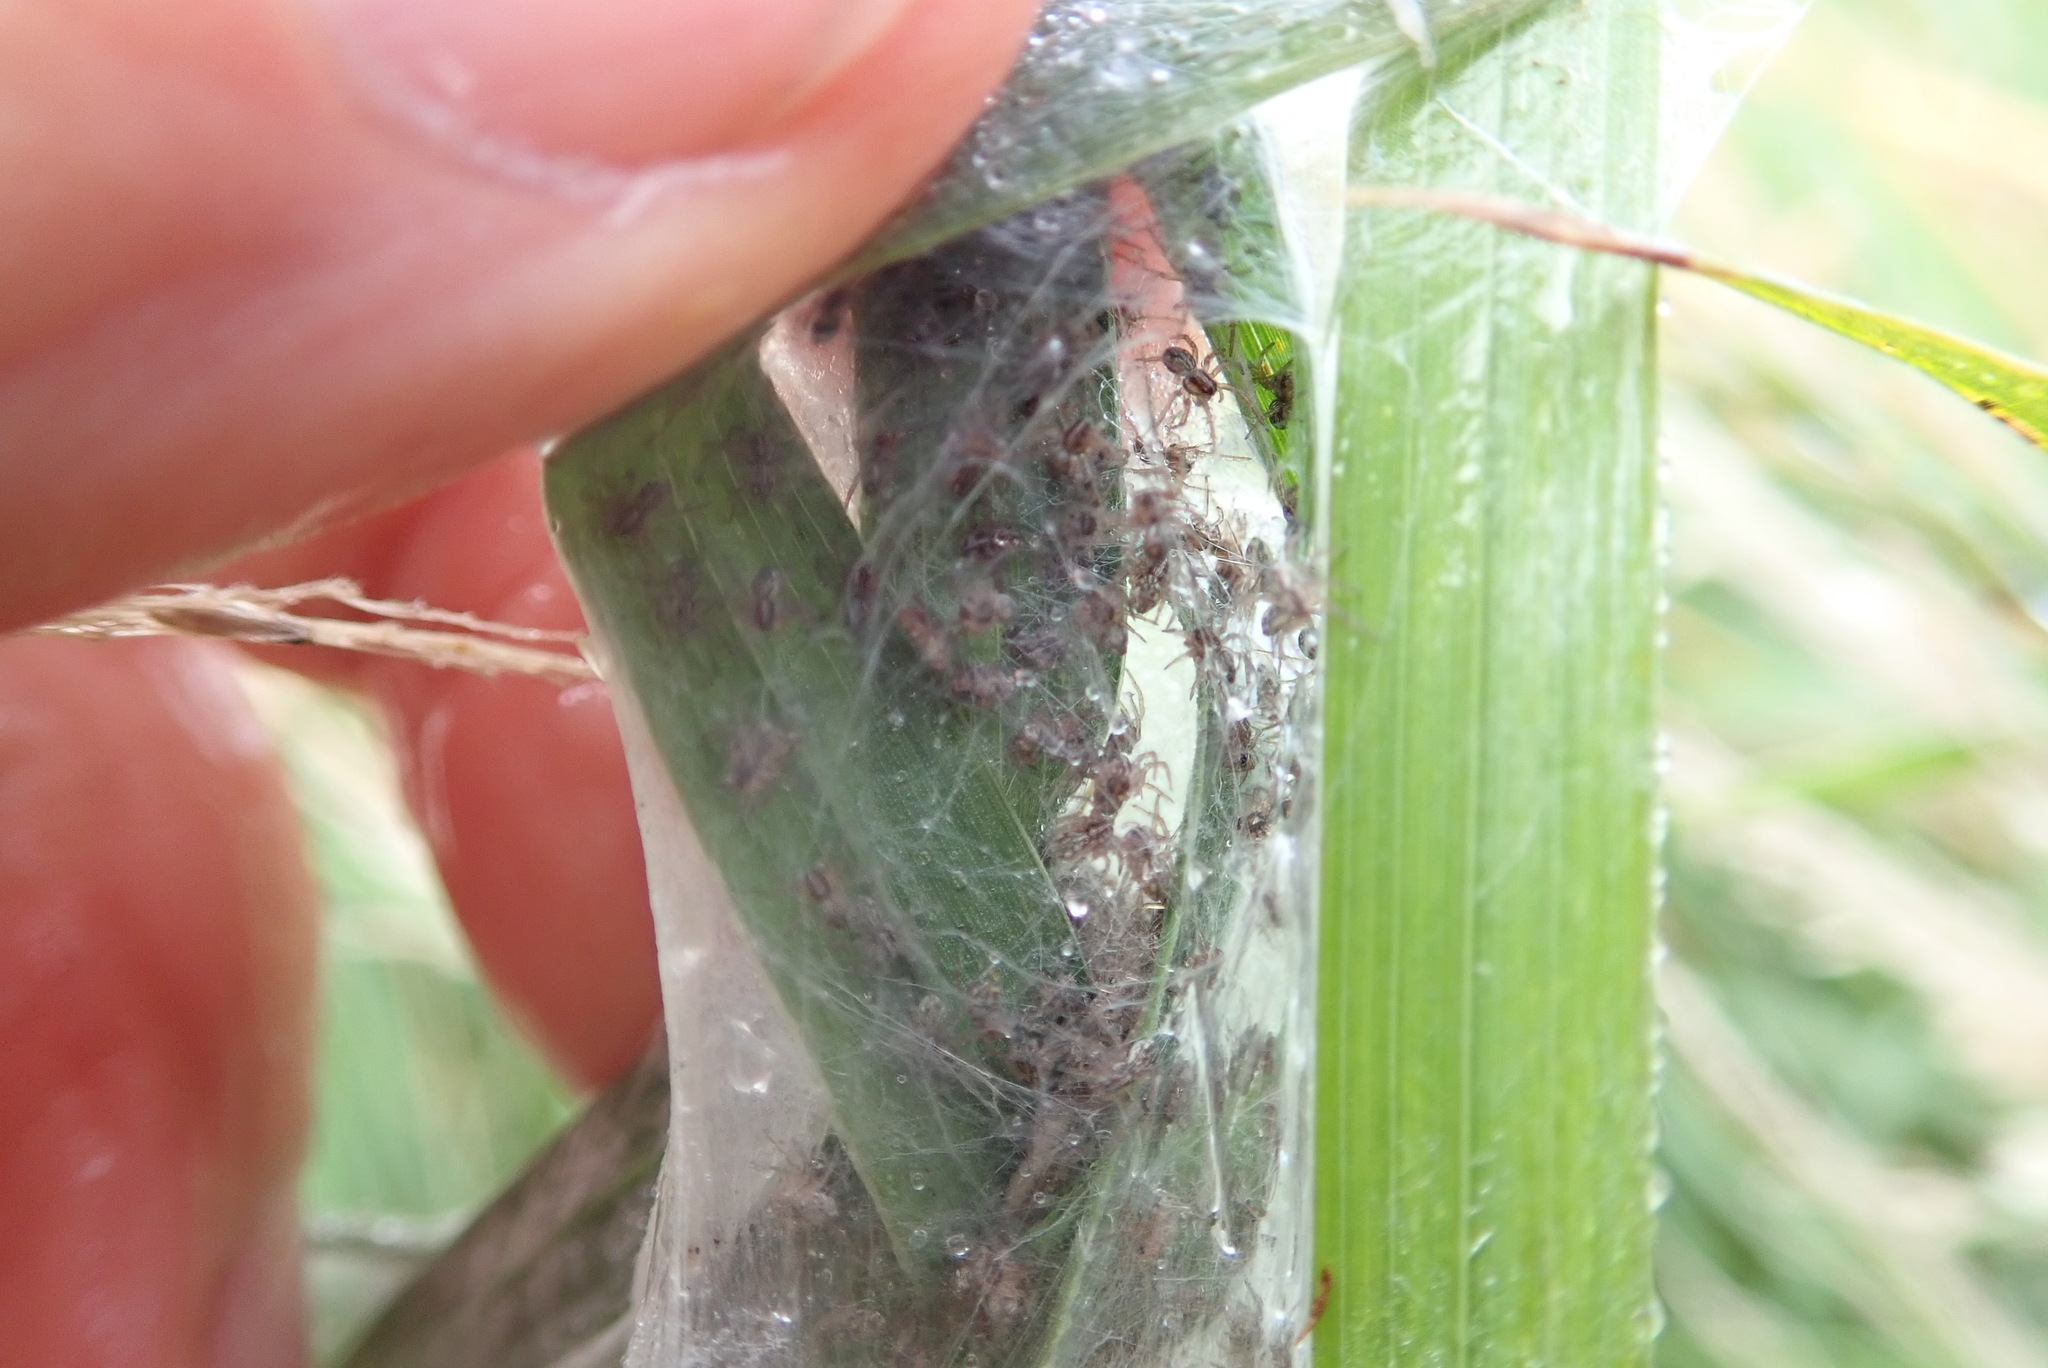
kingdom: Animalia
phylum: Arthropoda
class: Arachnida
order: Araneae
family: Pisauridae
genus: Dolomedes
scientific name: Dolomedes minor
